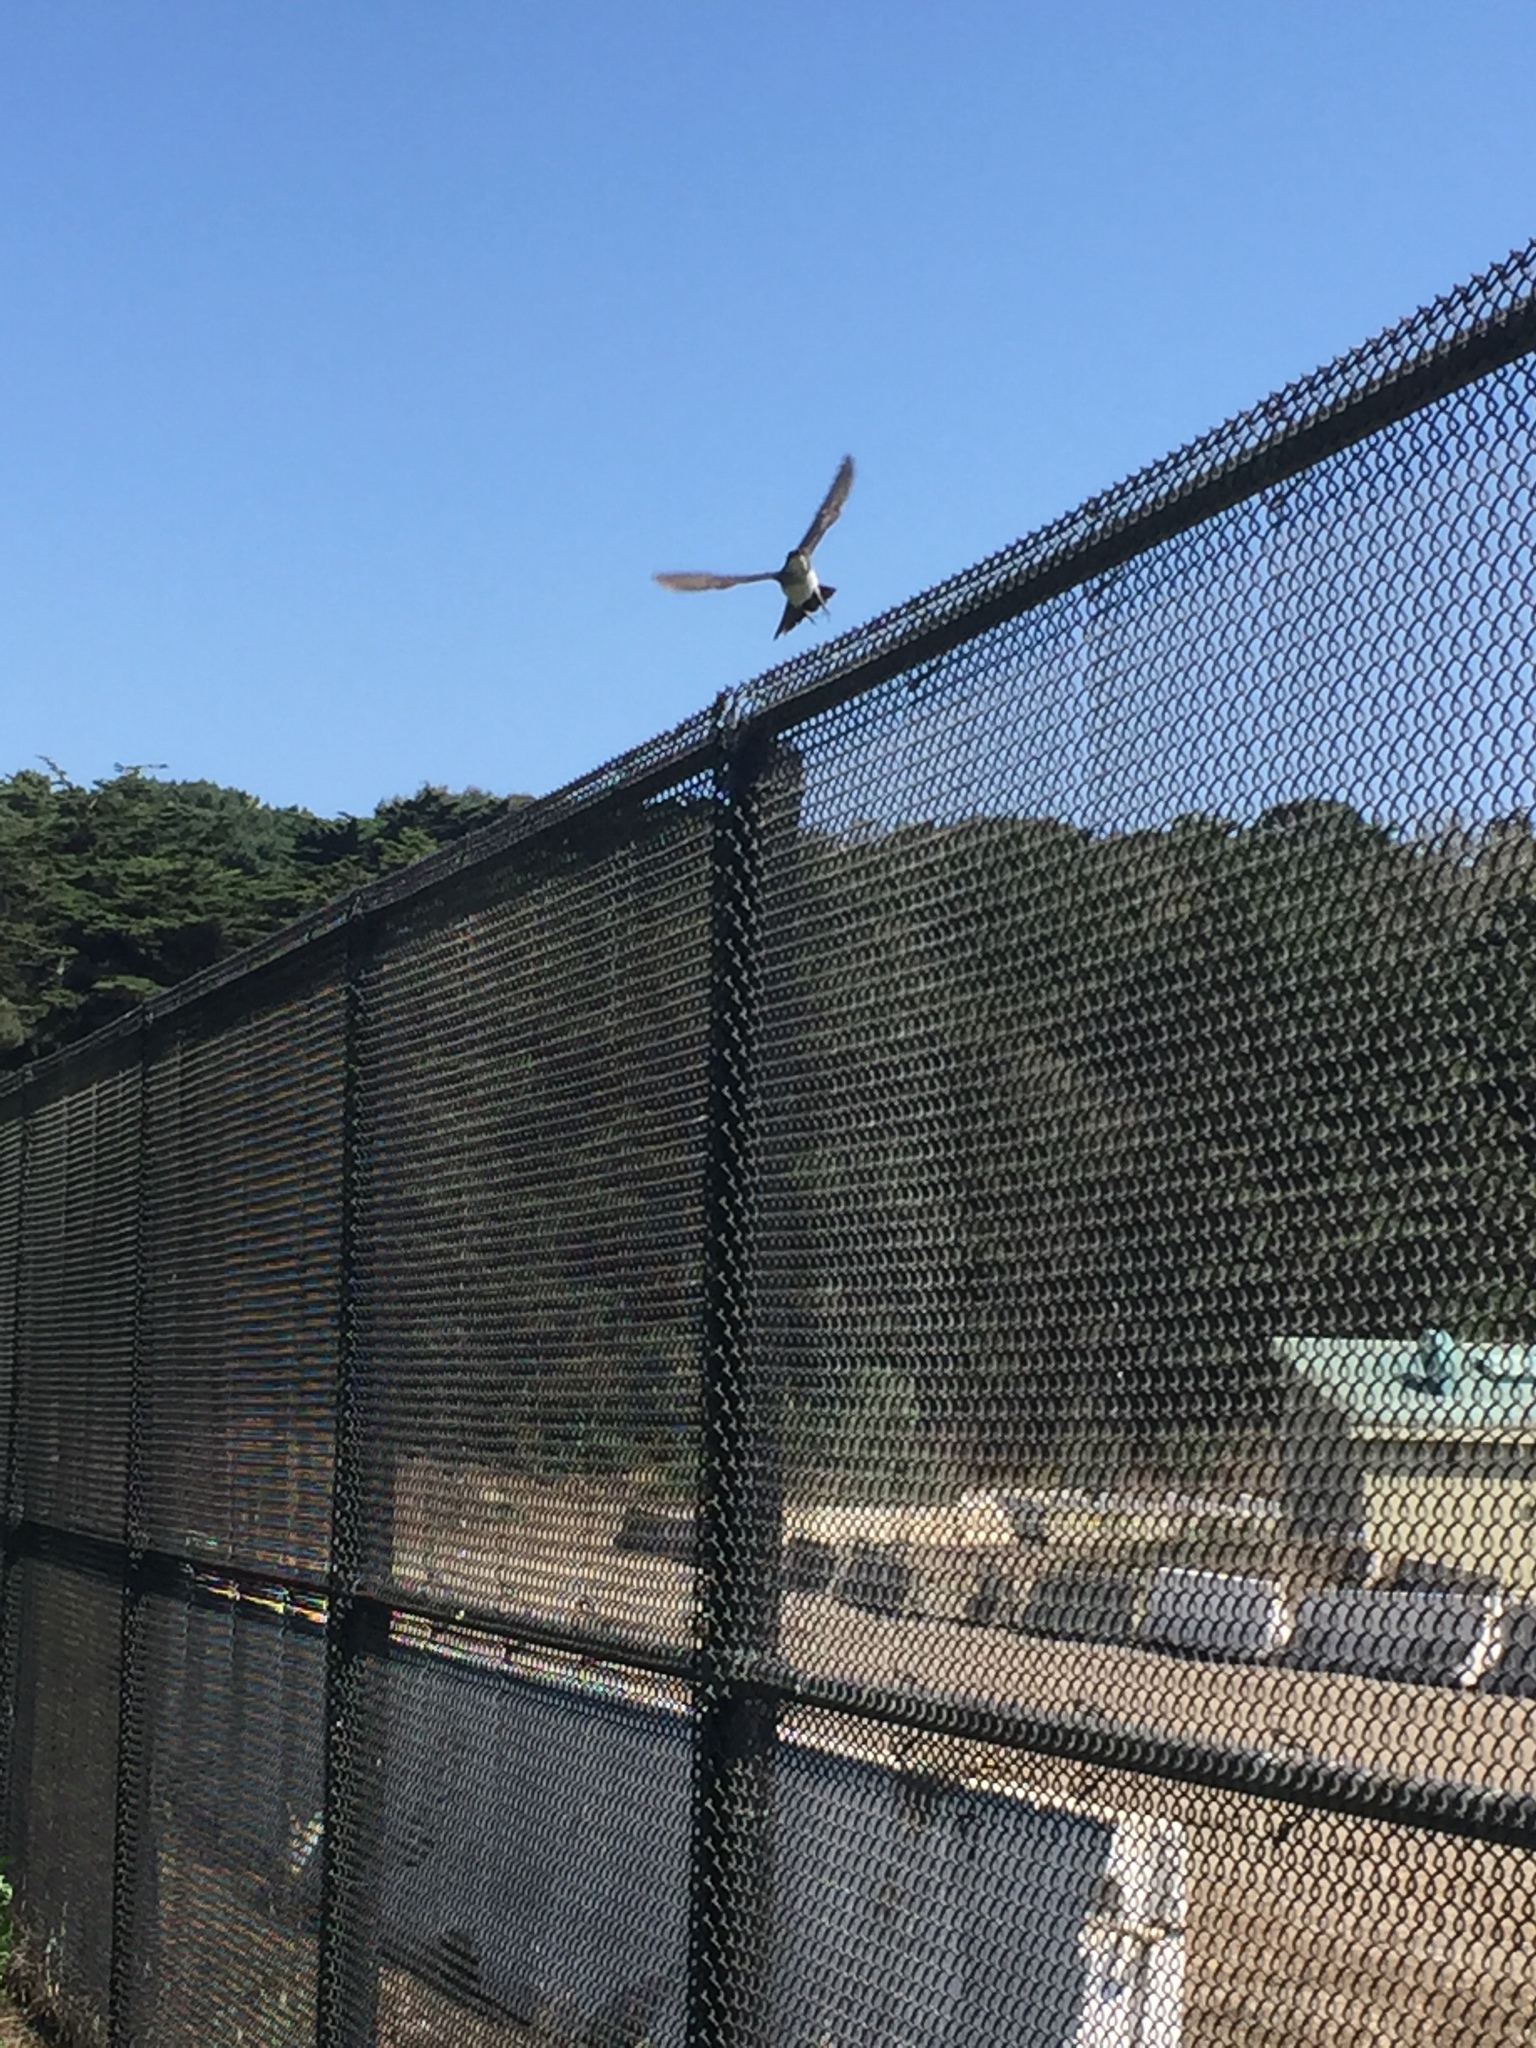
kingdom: Animalia
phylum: Chordata
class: Aves
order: Passeriformes
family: Tyrannidae
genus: Tyrannus
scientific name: Tyrannus tyrannus
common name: Eastern kingbird
